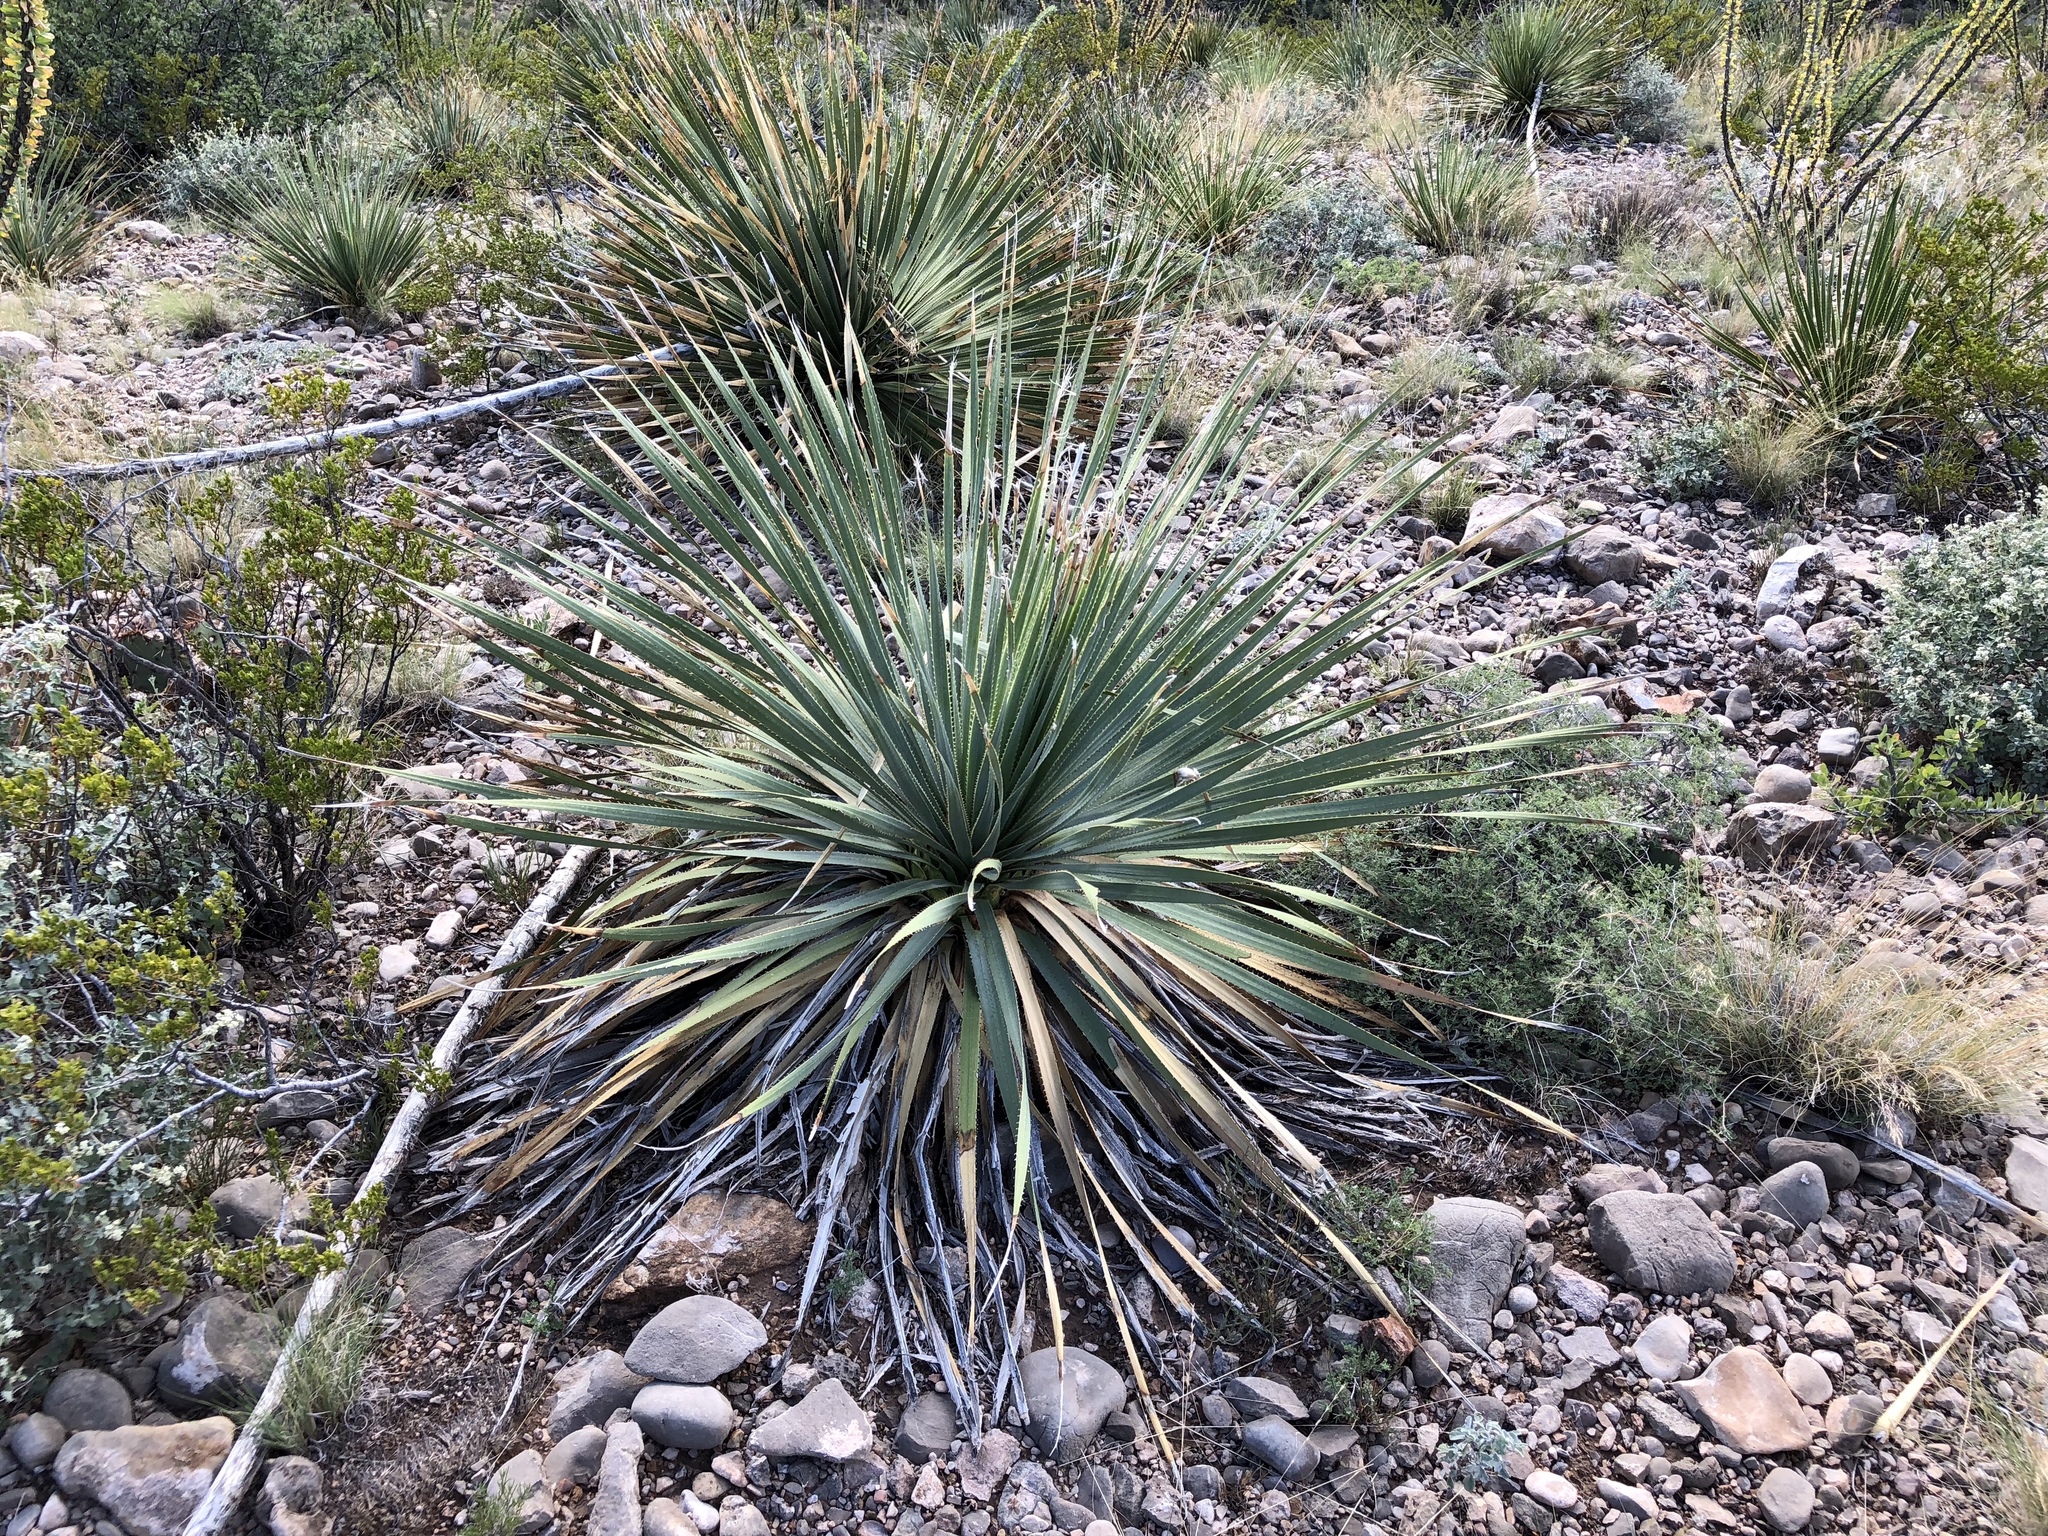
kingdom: Plantae
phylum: Tracheophyta
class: Liliopsida
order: Asparagales
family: Asparagaceae
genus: Dasylirion
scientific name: Dasylirion wheeleri
